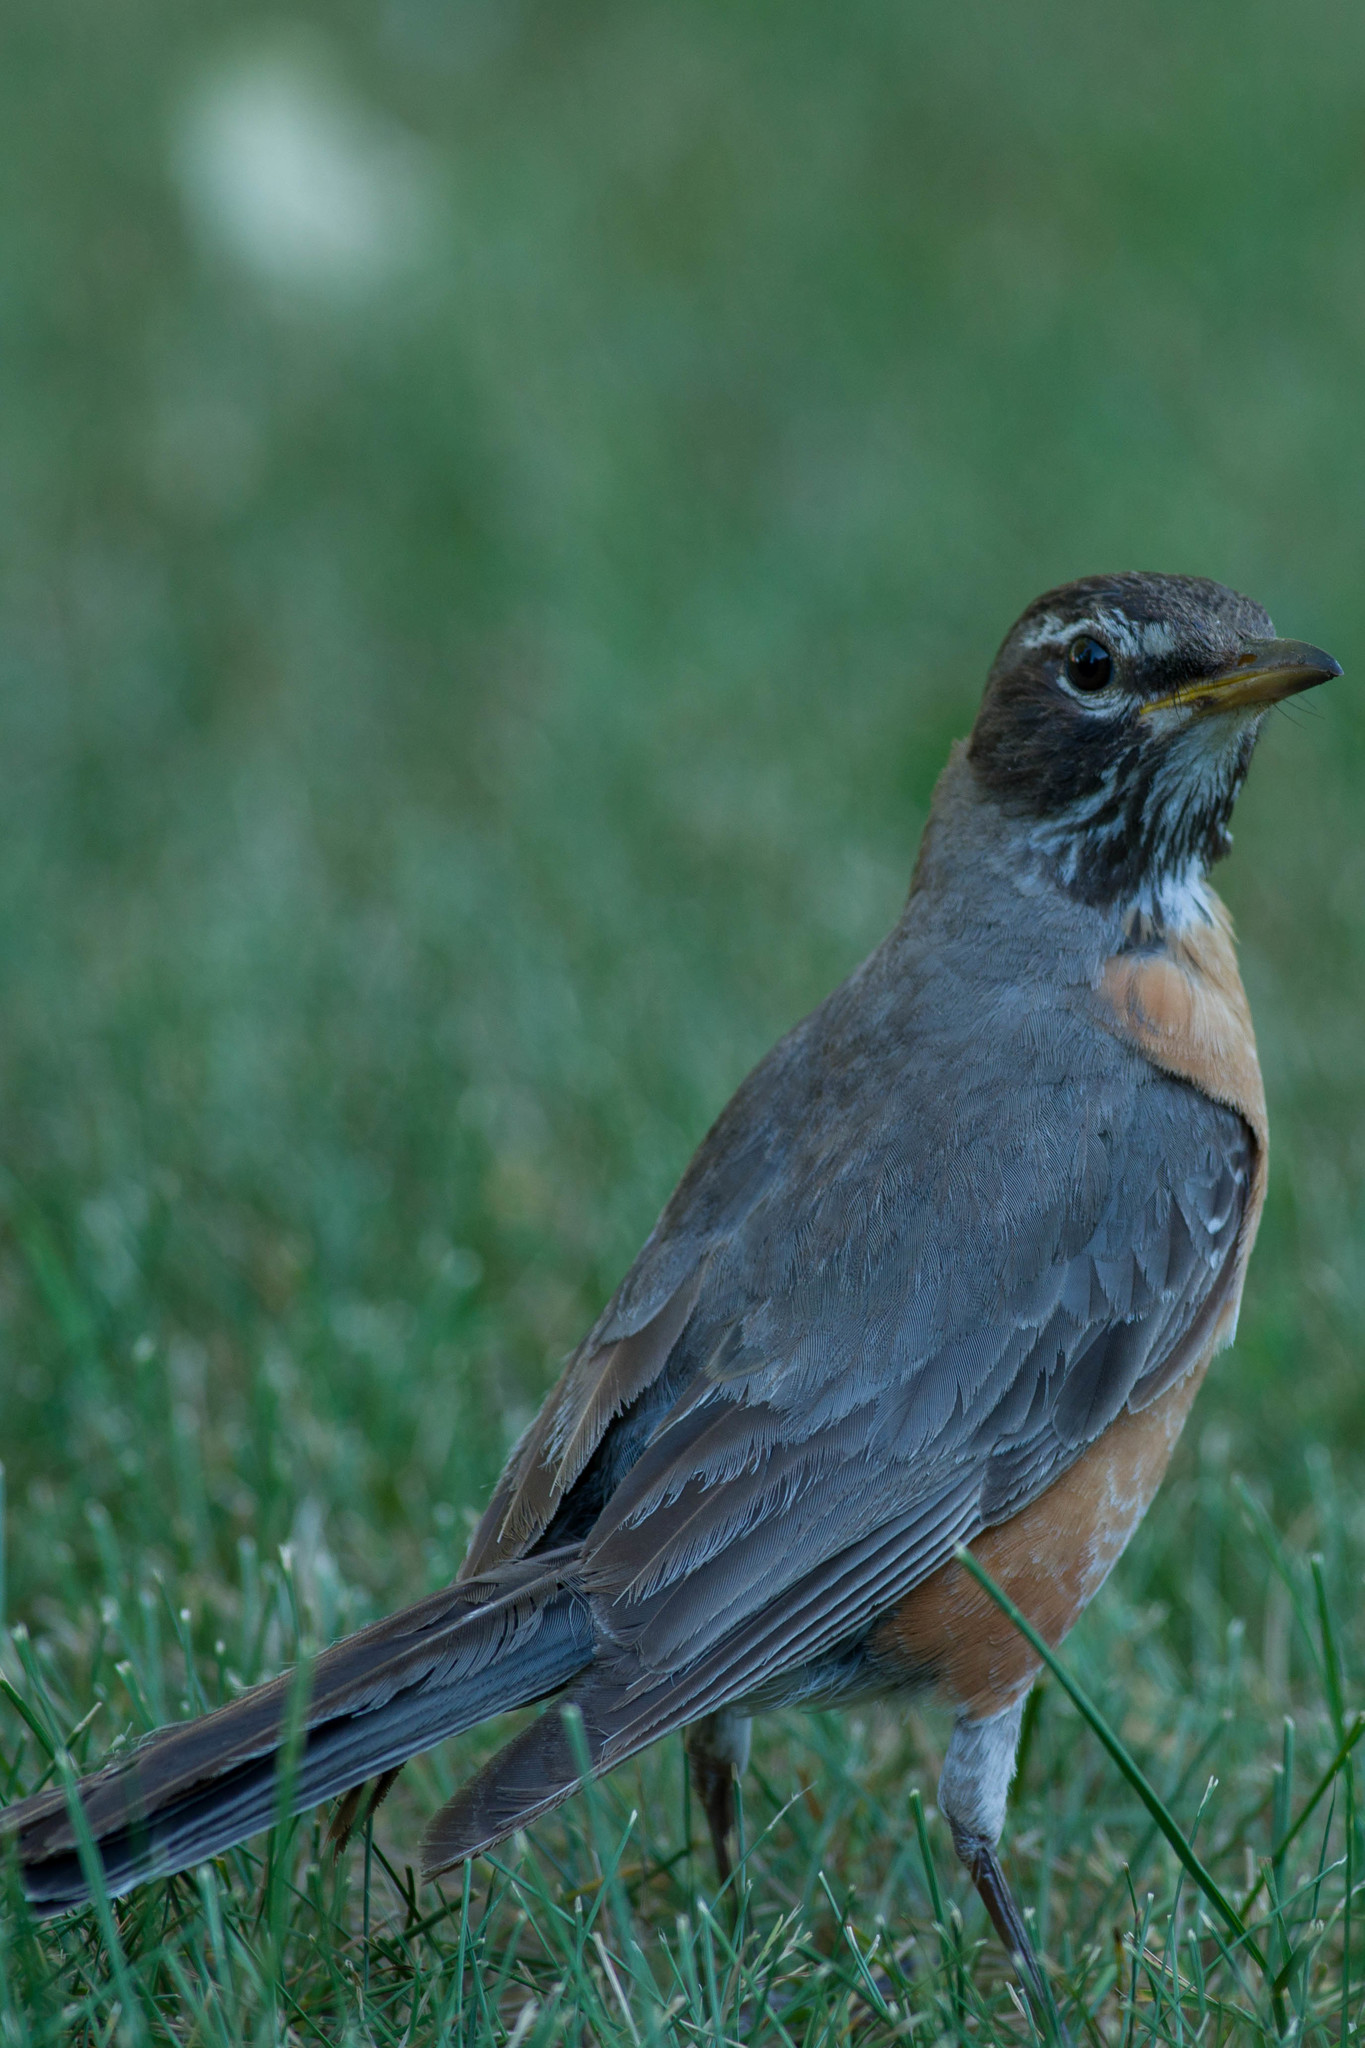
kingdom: Animalia
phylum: Chordata
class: Aves
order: Passeriformes
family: Turdidae
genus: Turdus
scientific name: Turdus migratorius
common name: American robin
